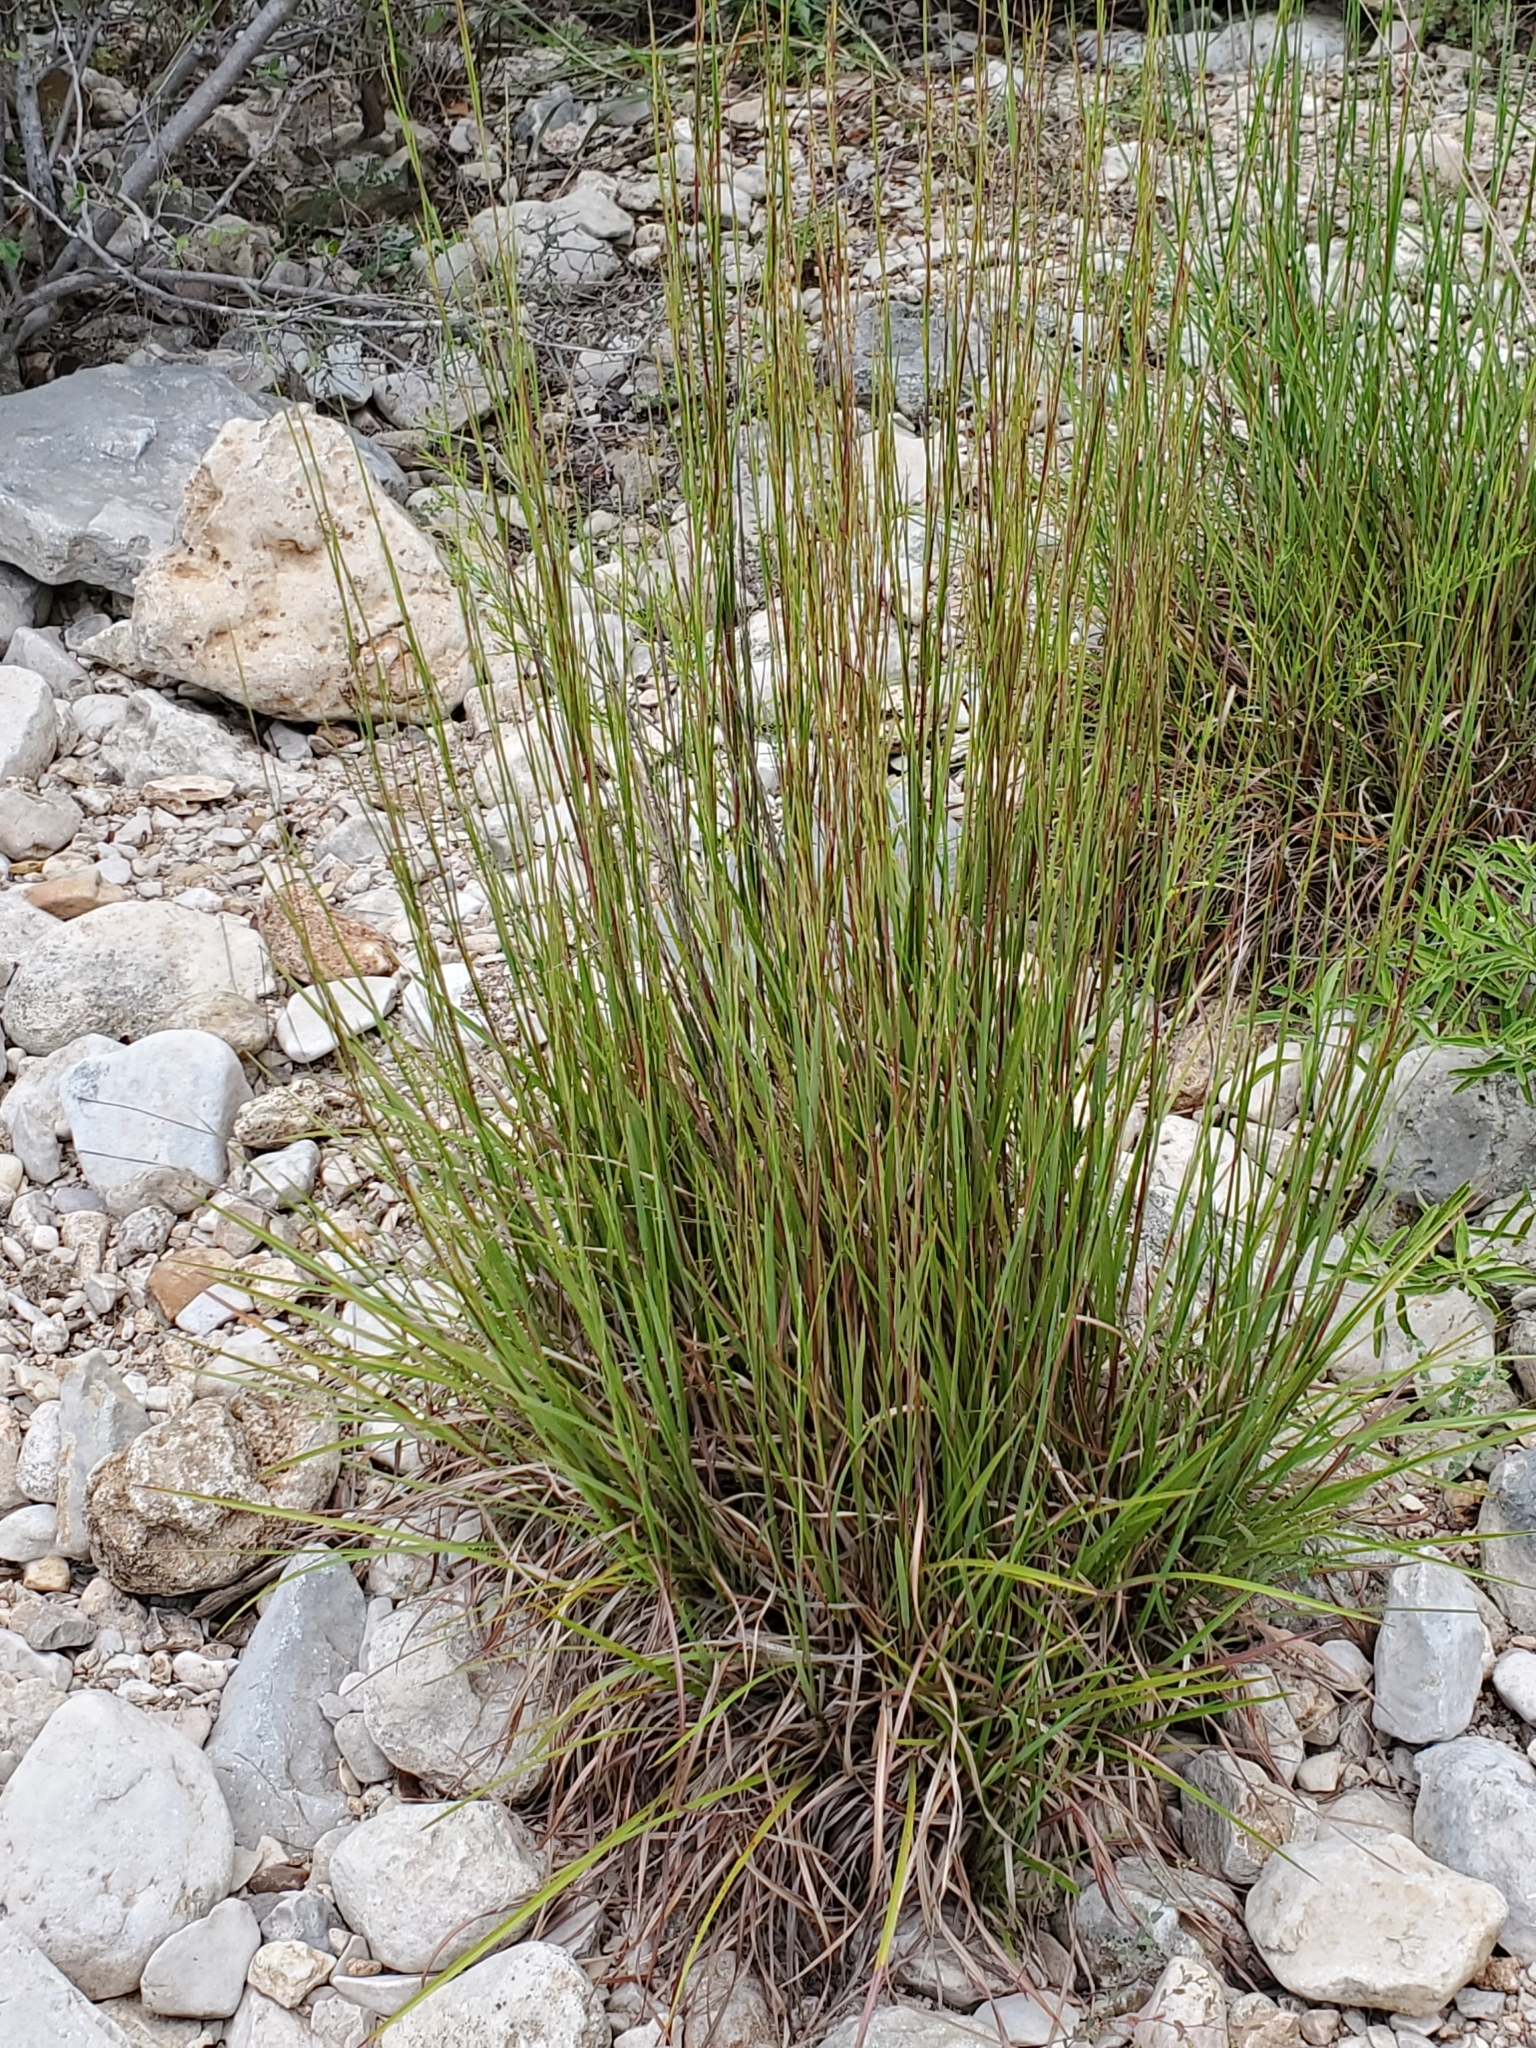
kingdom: Plantae
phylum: Tracheophyta
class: Liliopsida
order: Poales
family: Poaceae
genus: Schizachyrium
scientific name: Schizachyrium scoparium
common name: Little bluestem
